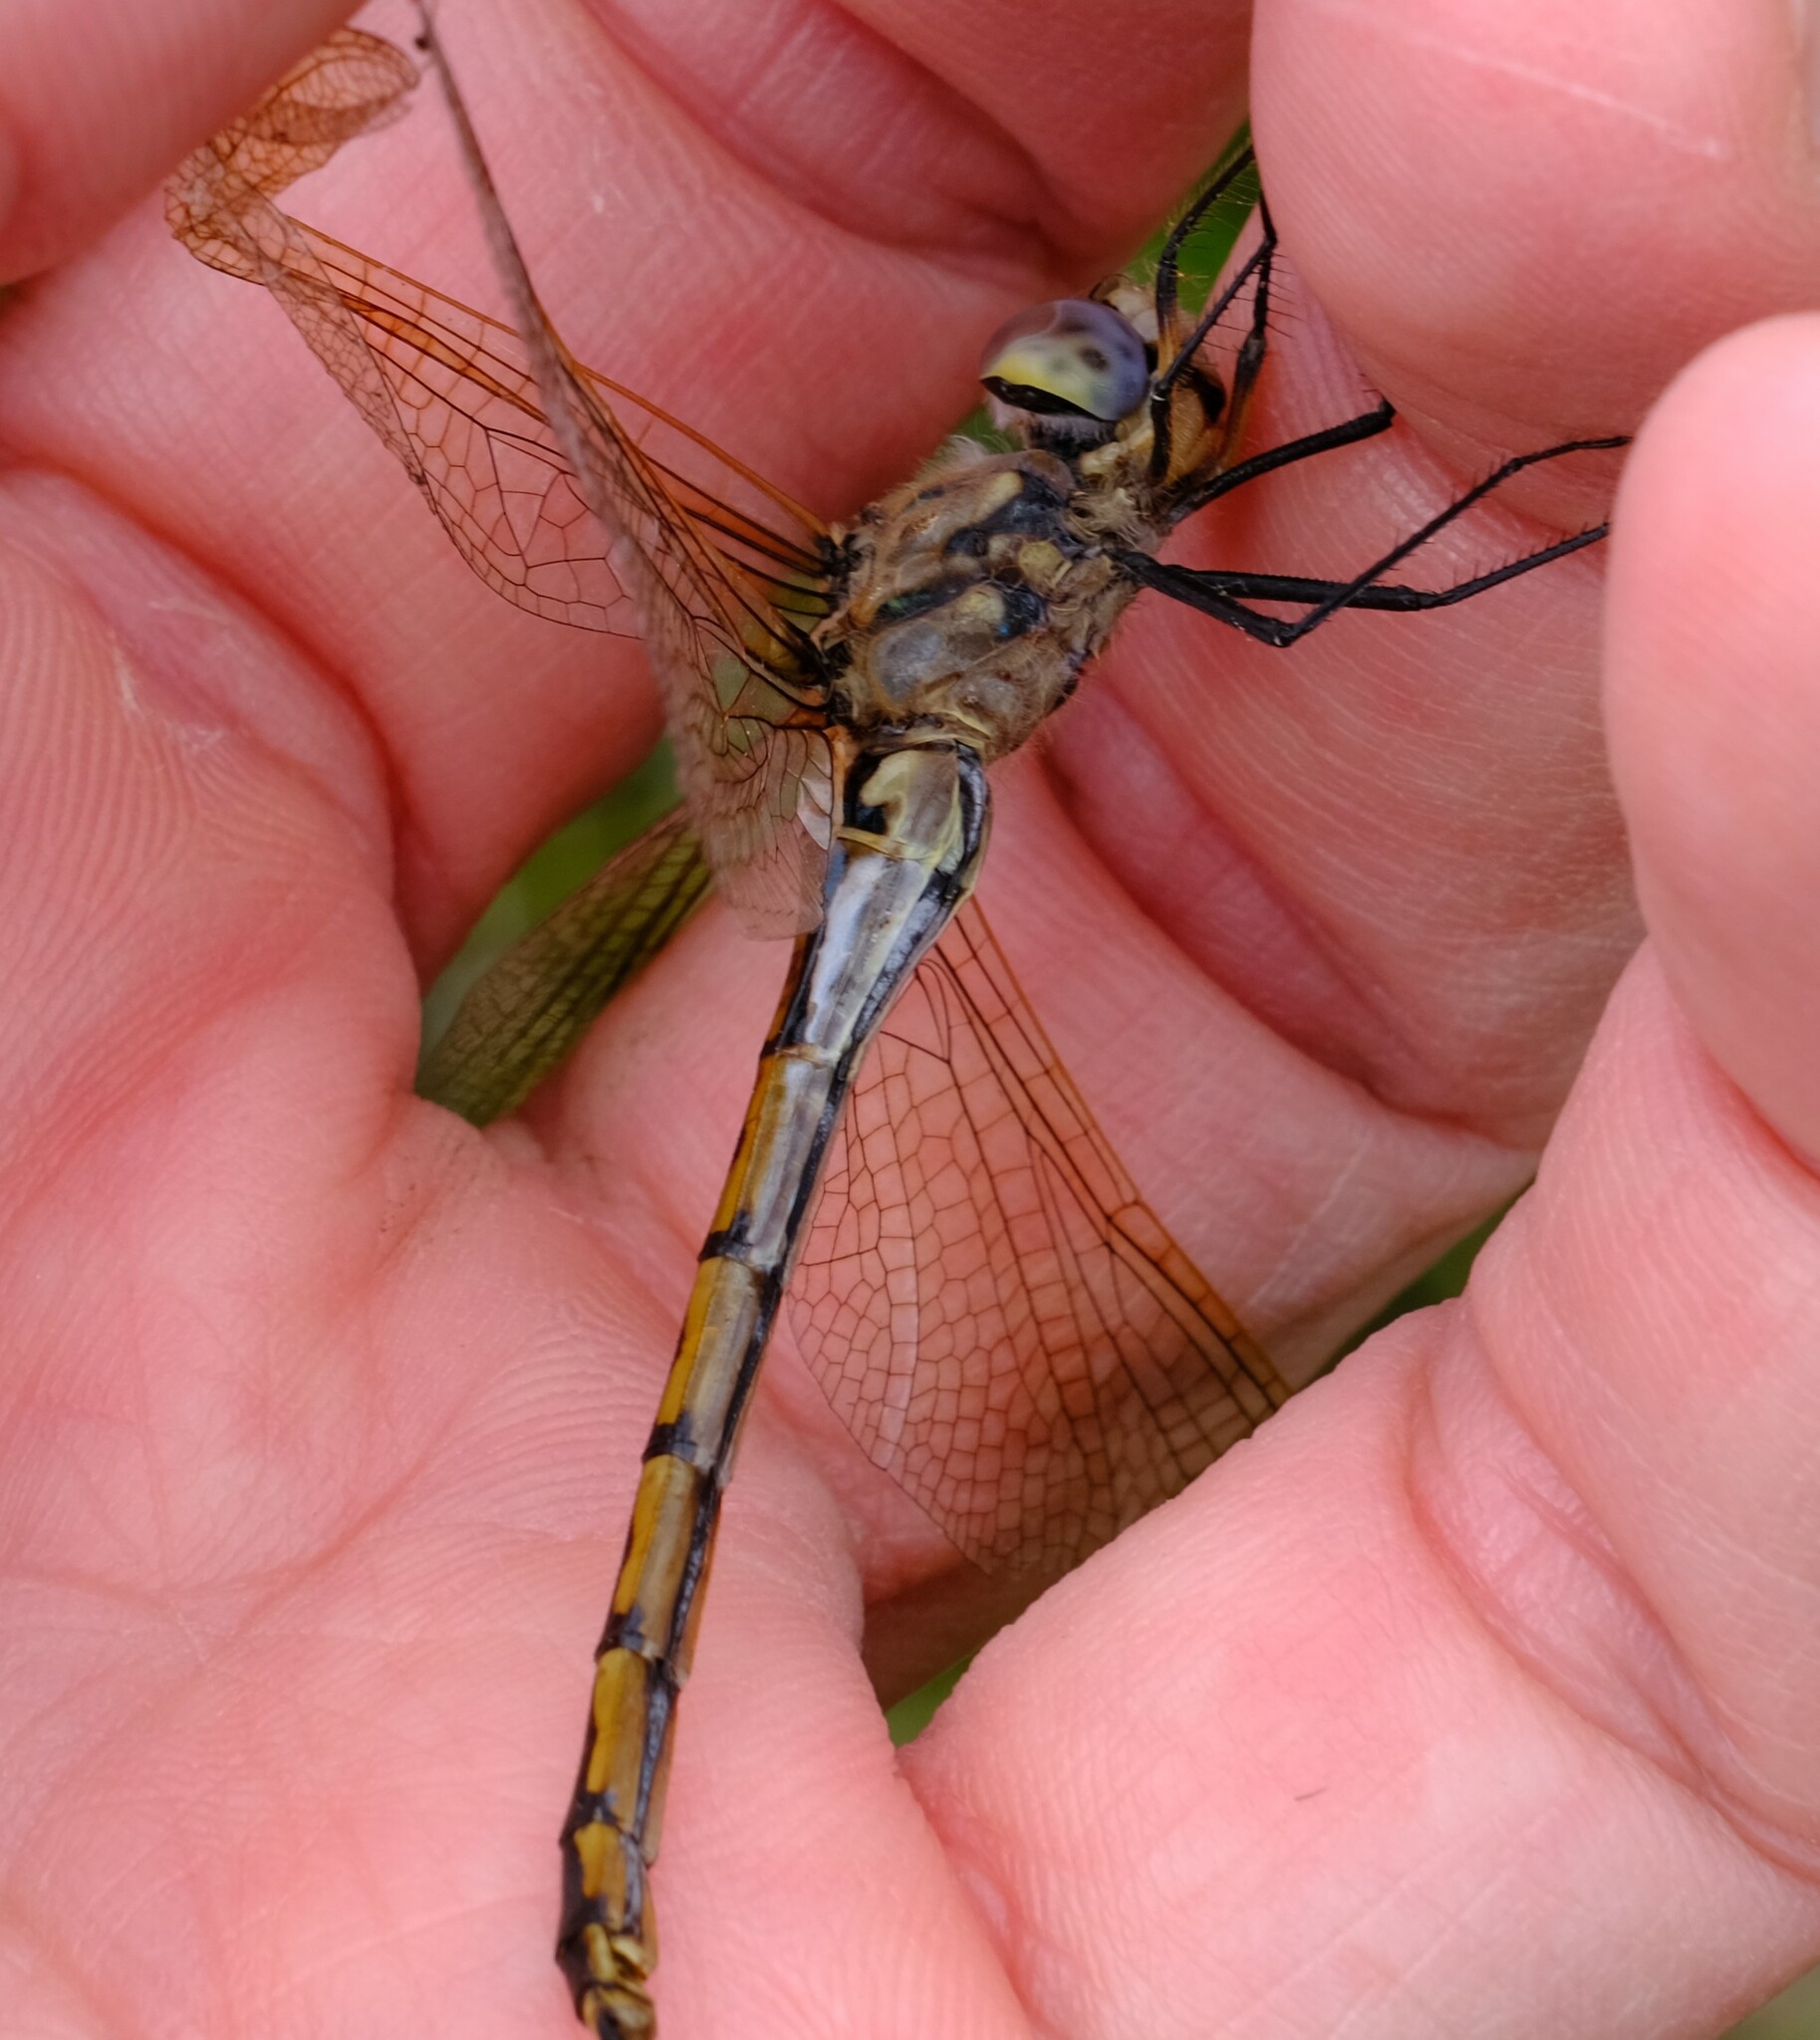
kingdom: Animalia
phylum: Arthropoda
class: Insecta
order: Odonata
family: Corduliidae
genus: Hemicordulia
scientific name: Hemicordulia tau
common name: Tau emerald
